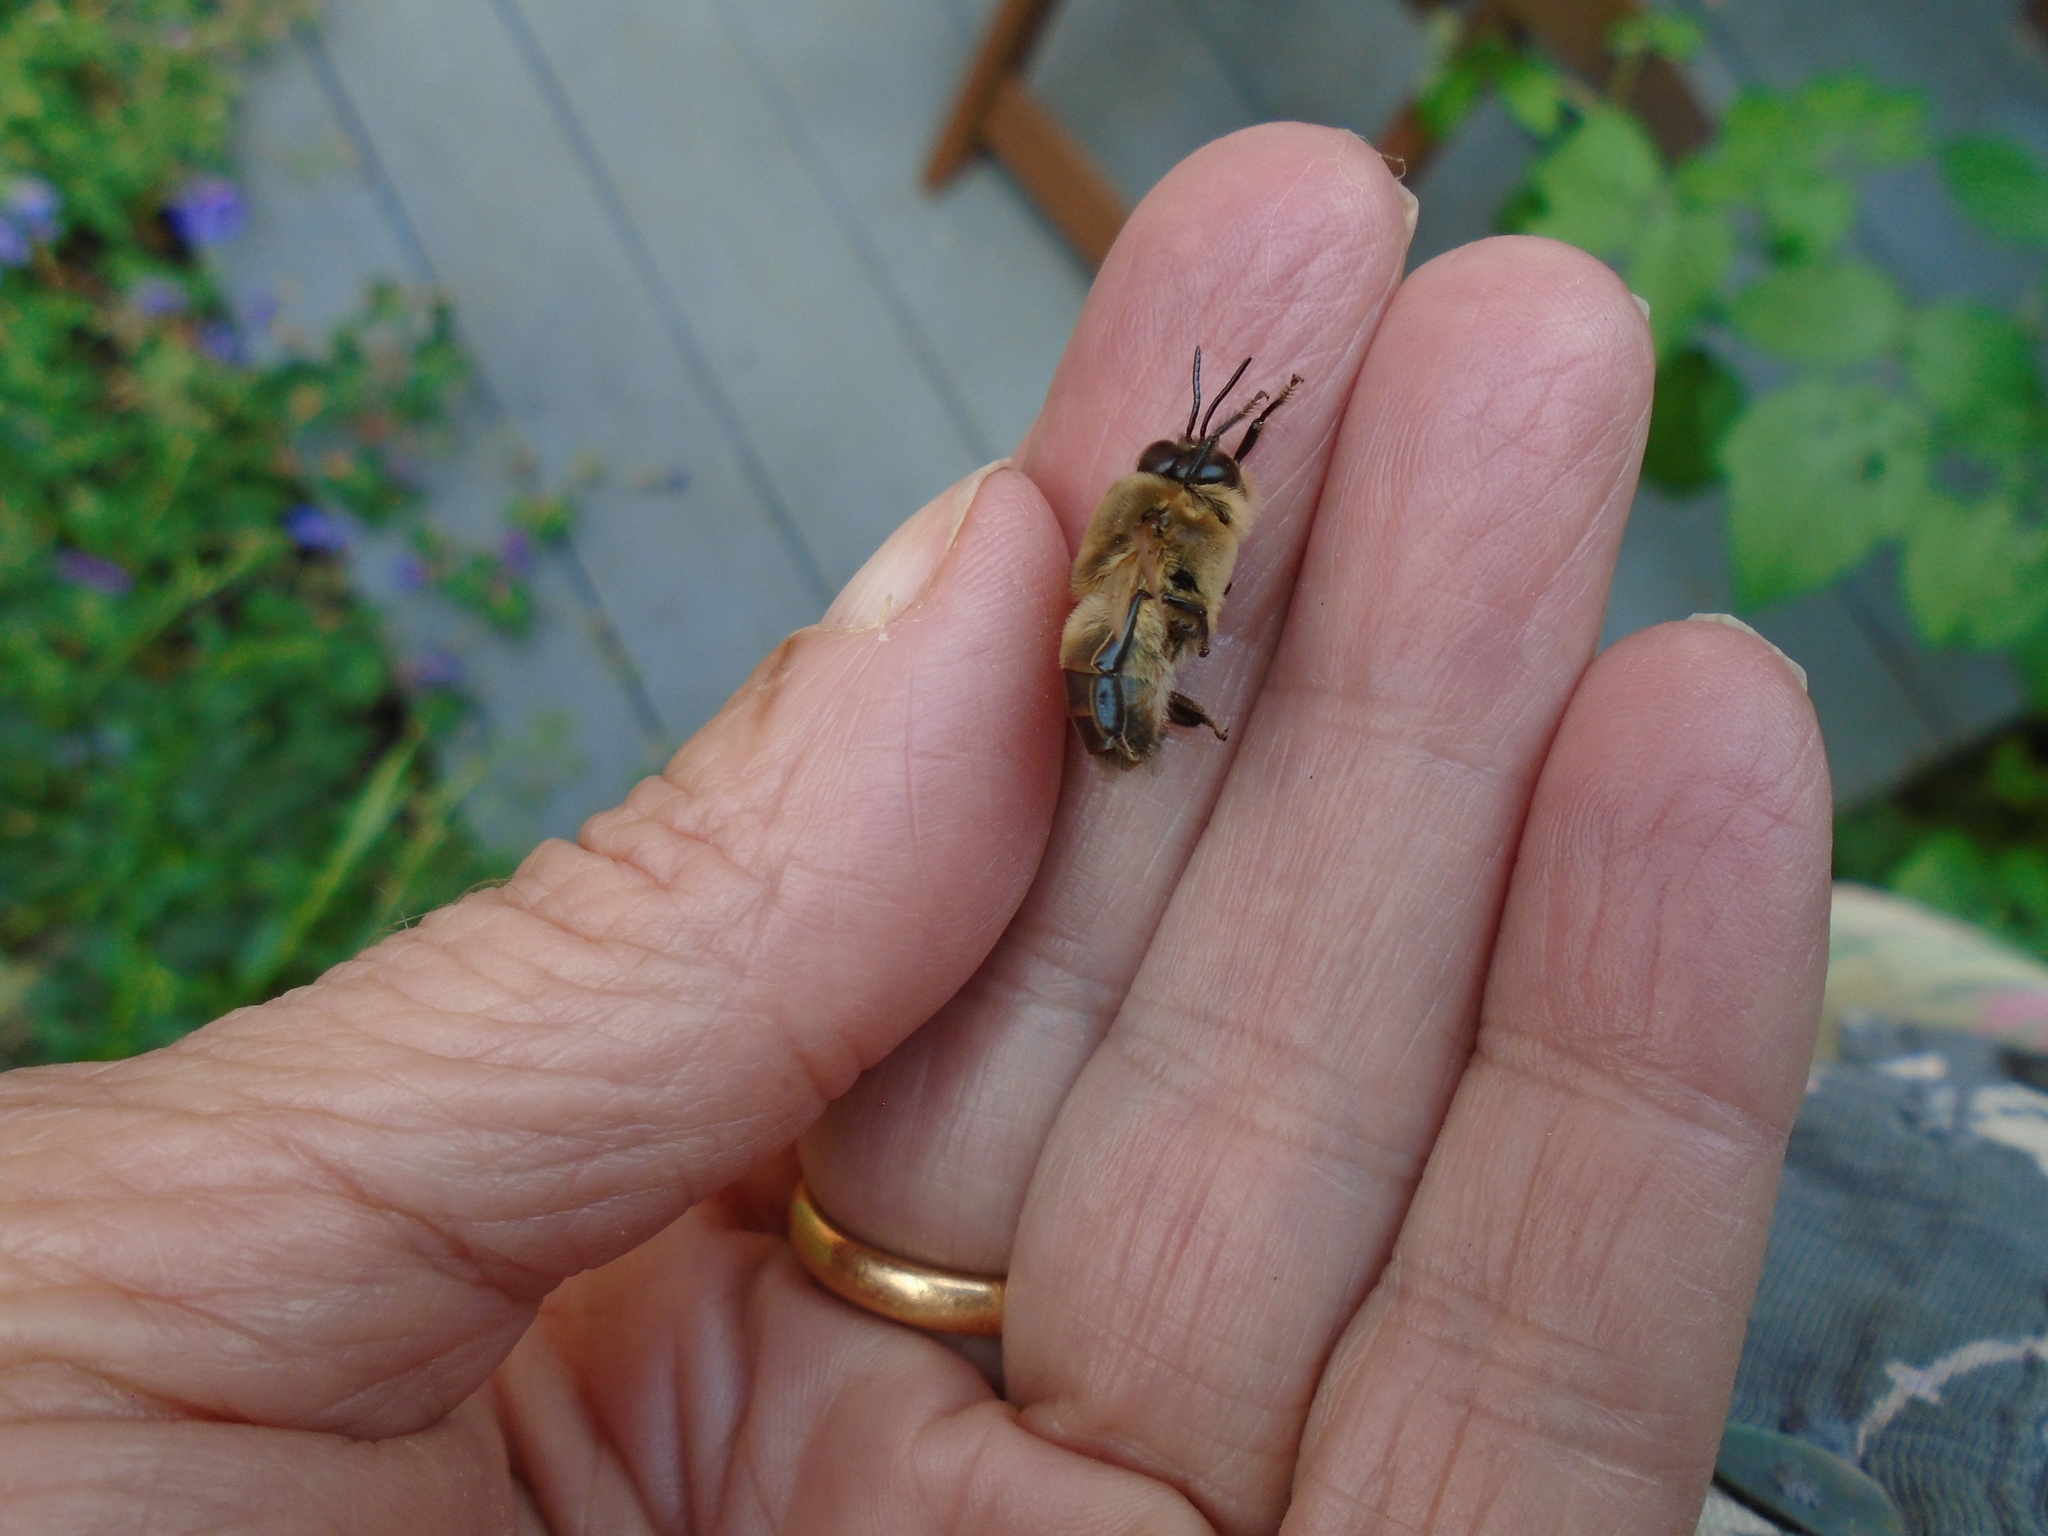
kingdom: Animalia
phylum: Arthropoda
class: Insecta
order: Hymenoptera
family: Apidae
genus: Apis
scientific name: Apis mellifera
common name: Honey bee
